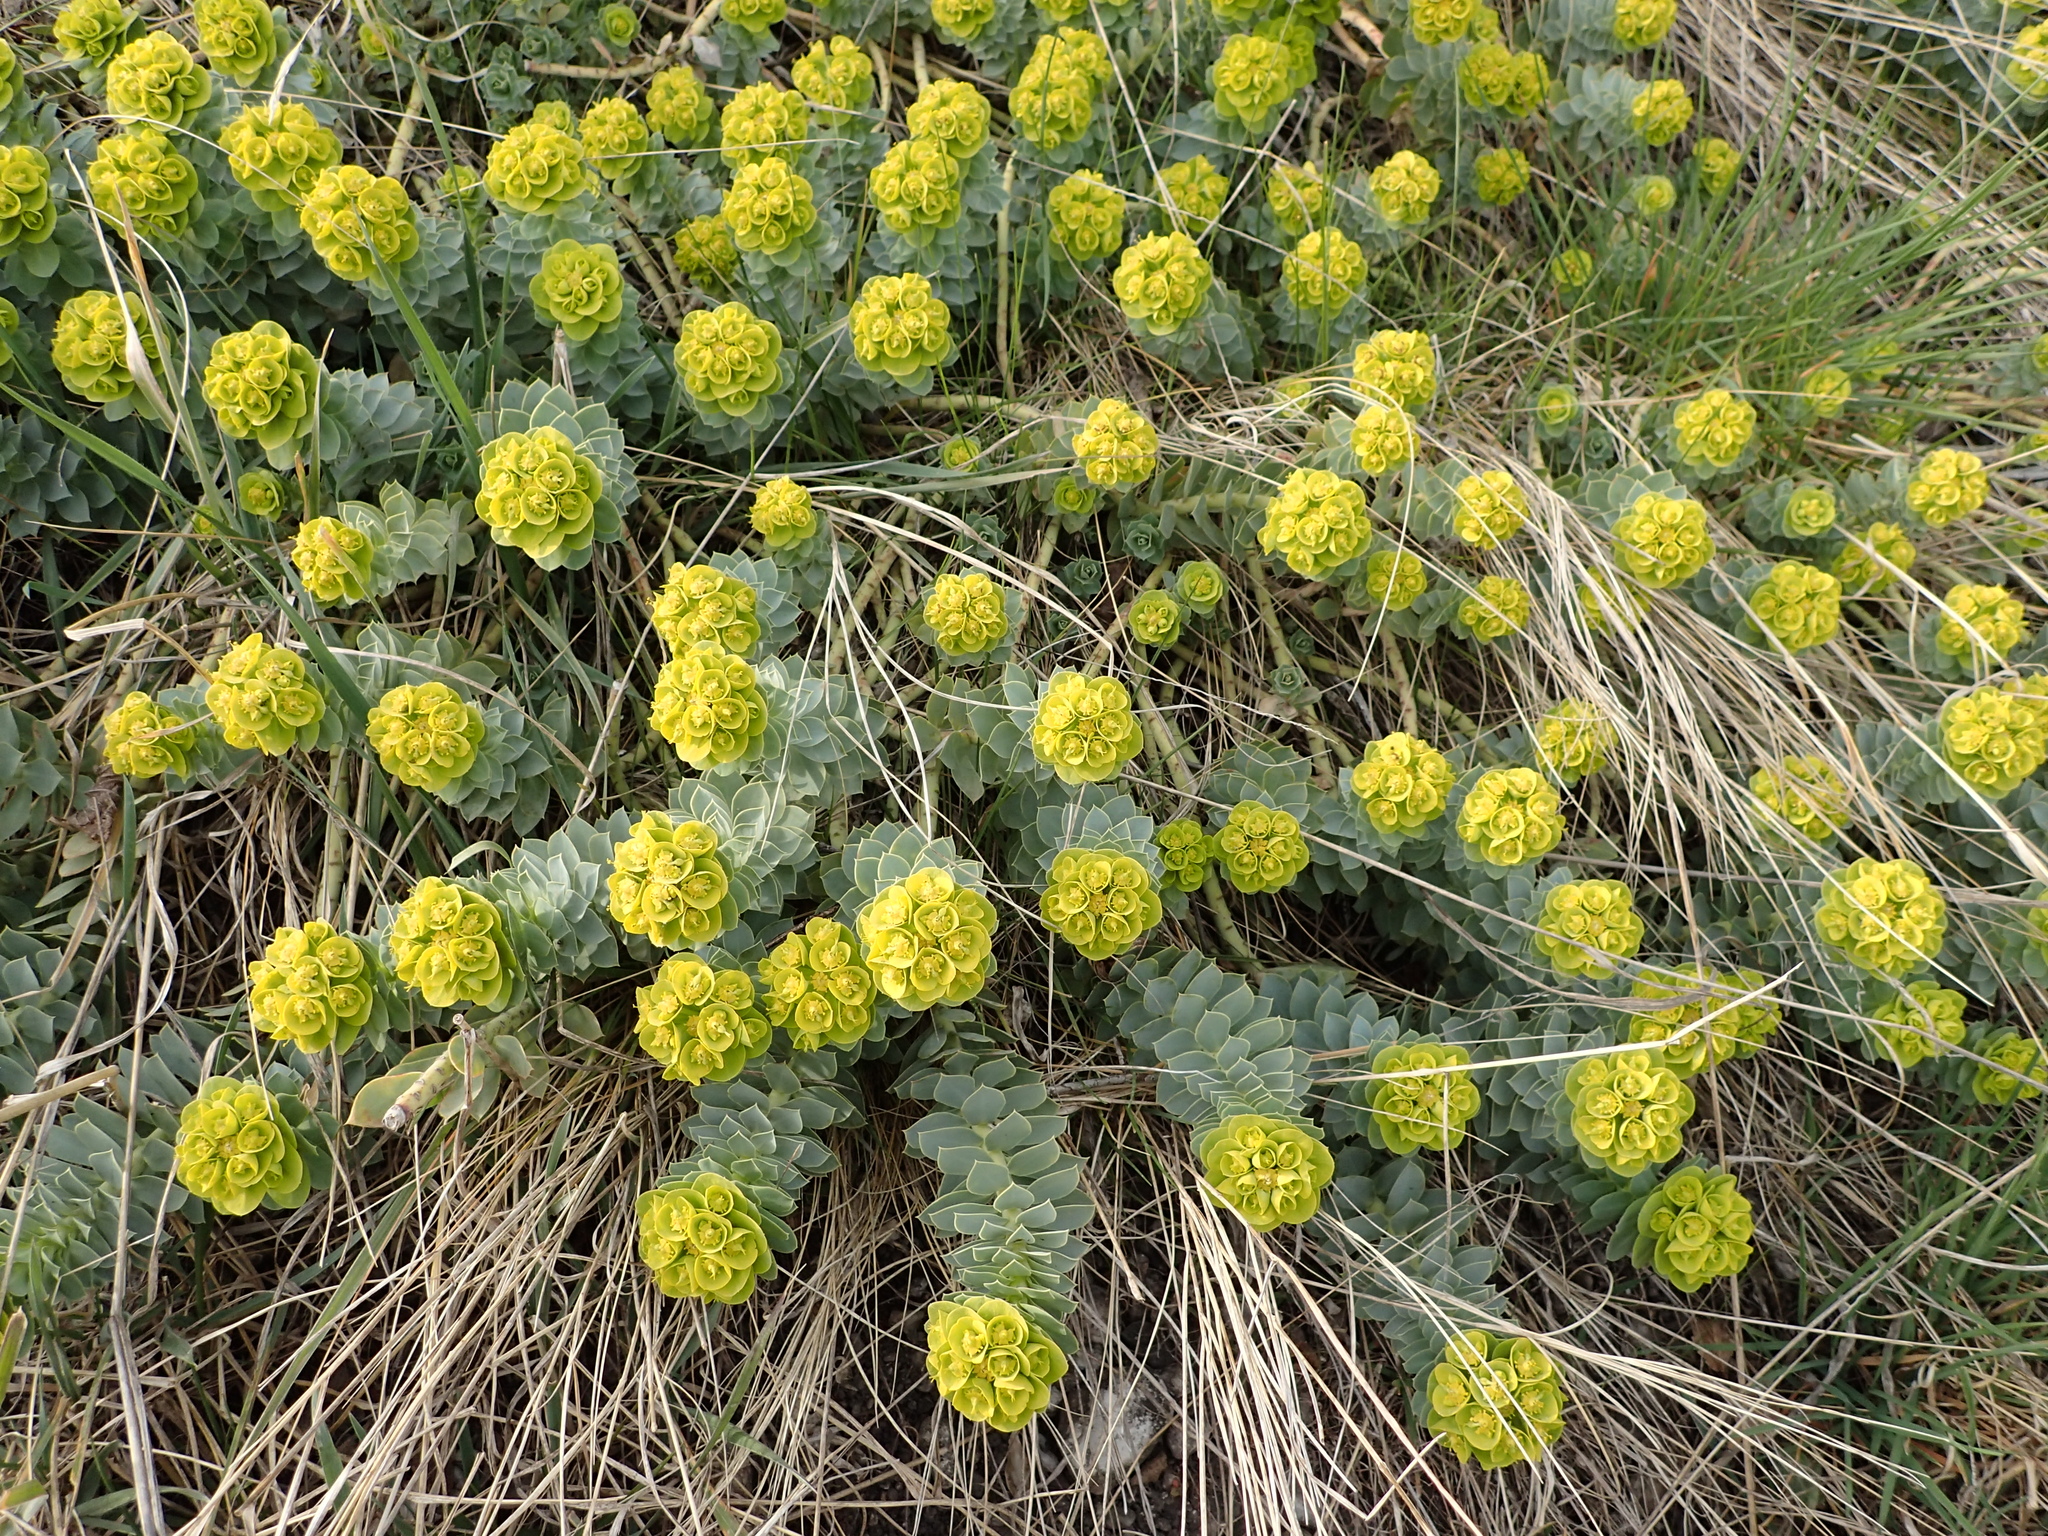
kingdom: Plantae
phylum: Tracheophyta
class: Magnoliopsida
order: Malpighiales
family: Euphorbiaceae
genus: Euphorbia
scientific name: Euphorbia myrsinites
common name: Myrtle spurge
